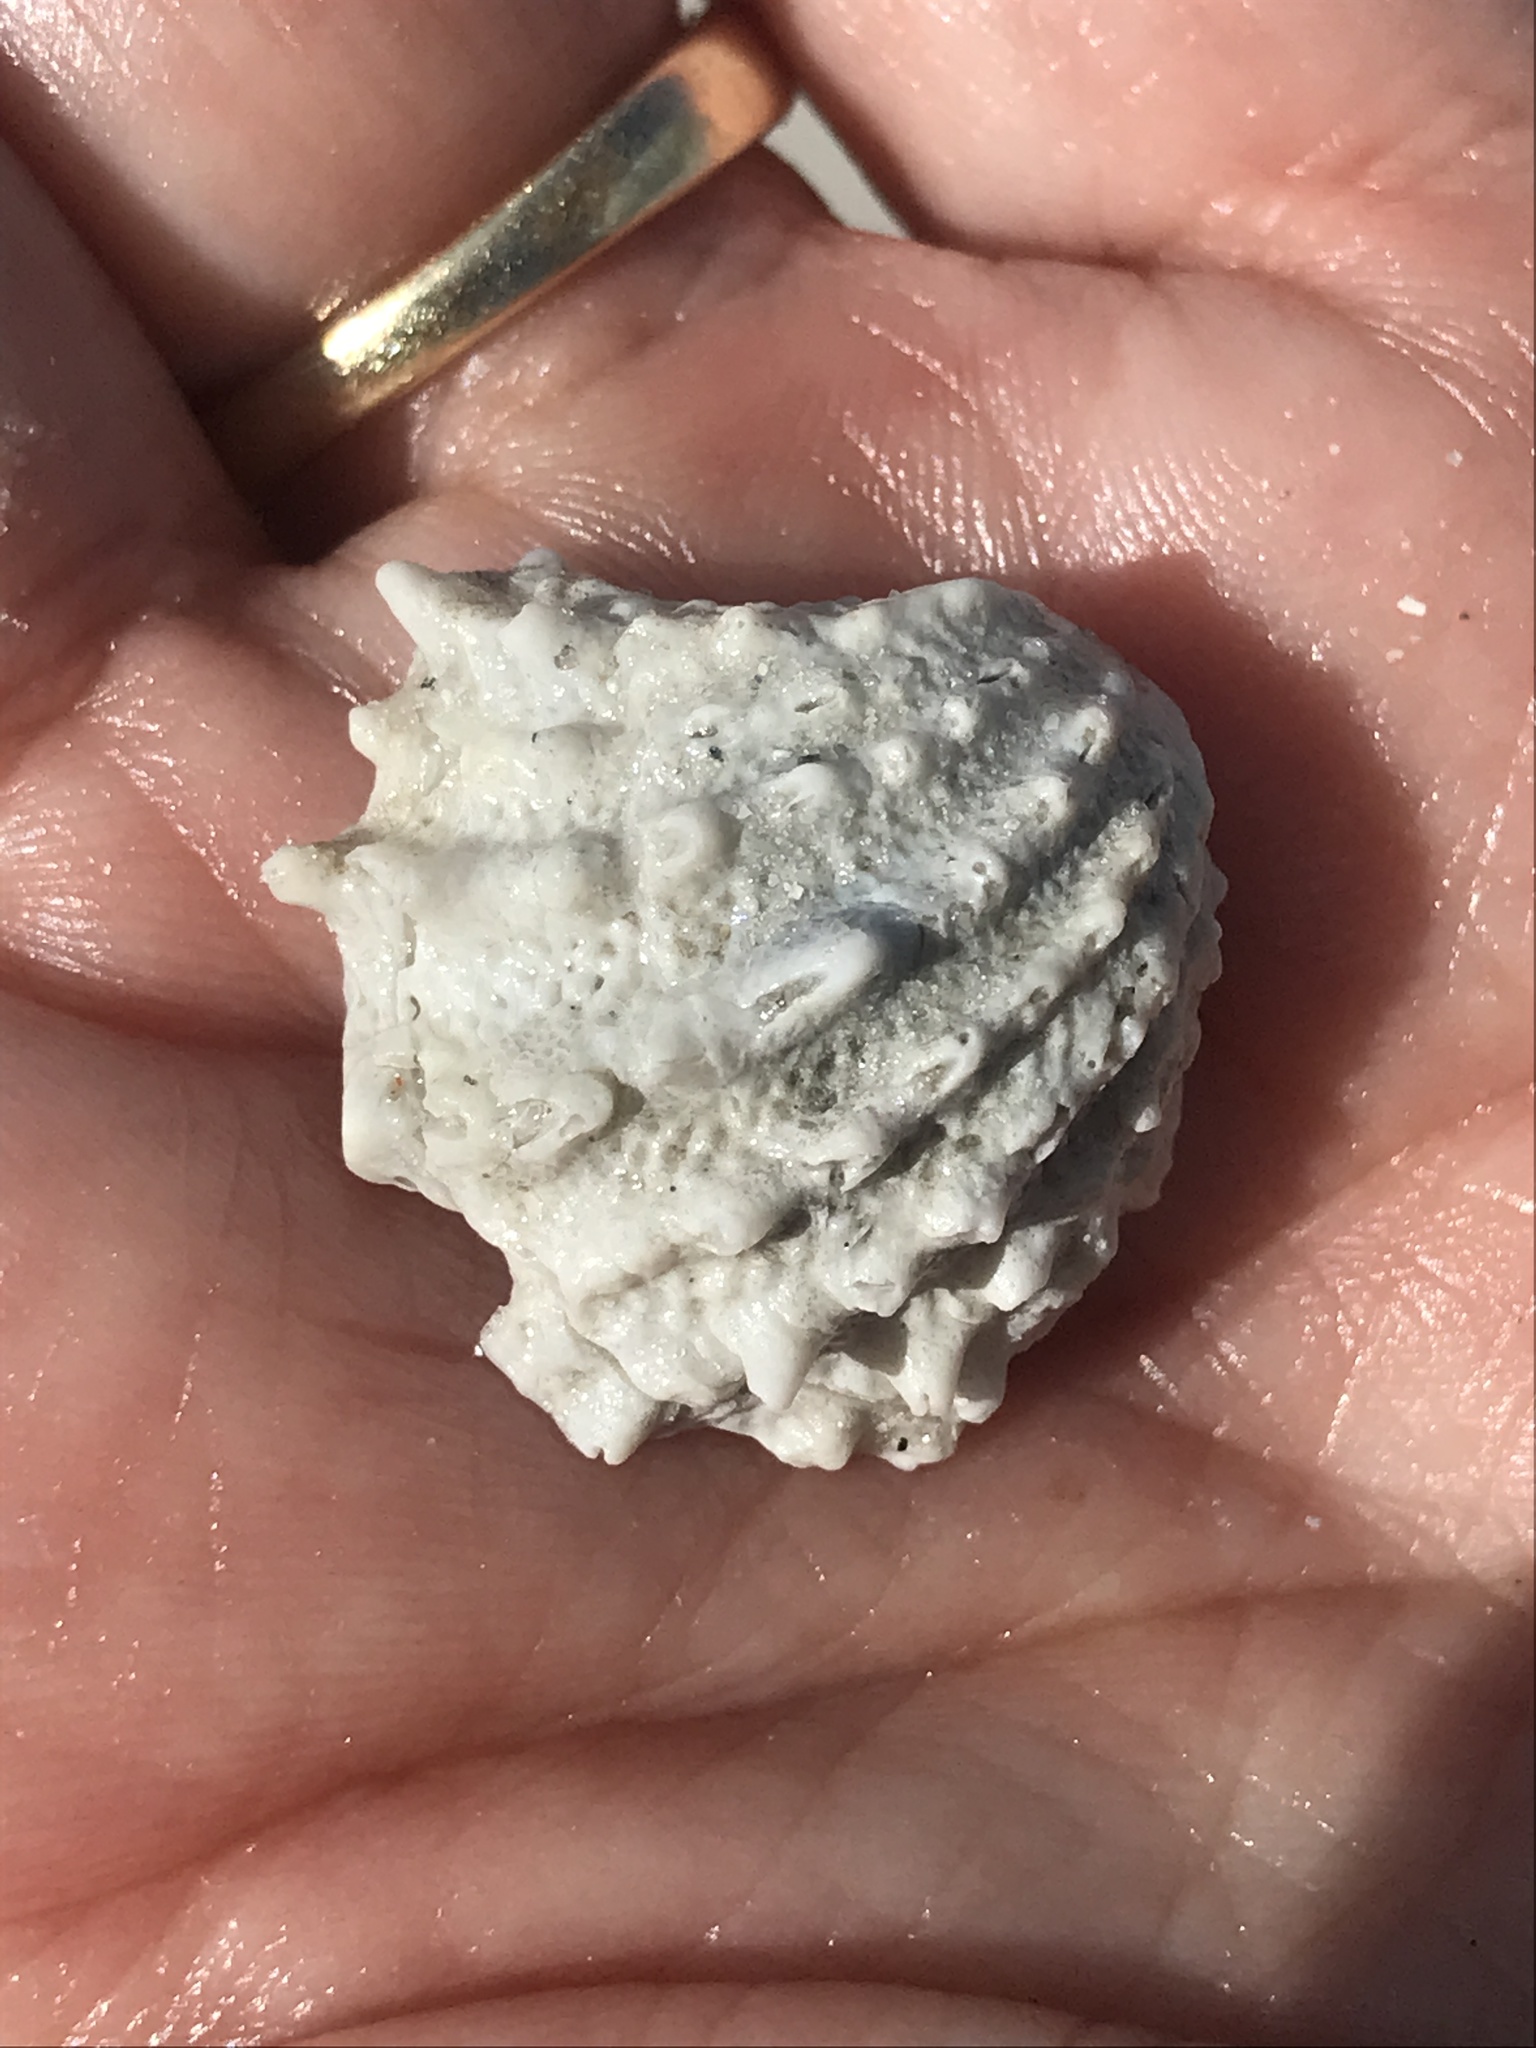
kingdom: Animalia
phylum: Mollusca
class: Bivalvia
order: Venerida
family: Chamidae
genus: Arcinella
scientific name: Arcinella cornuta
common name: Florida spiny jewel box
